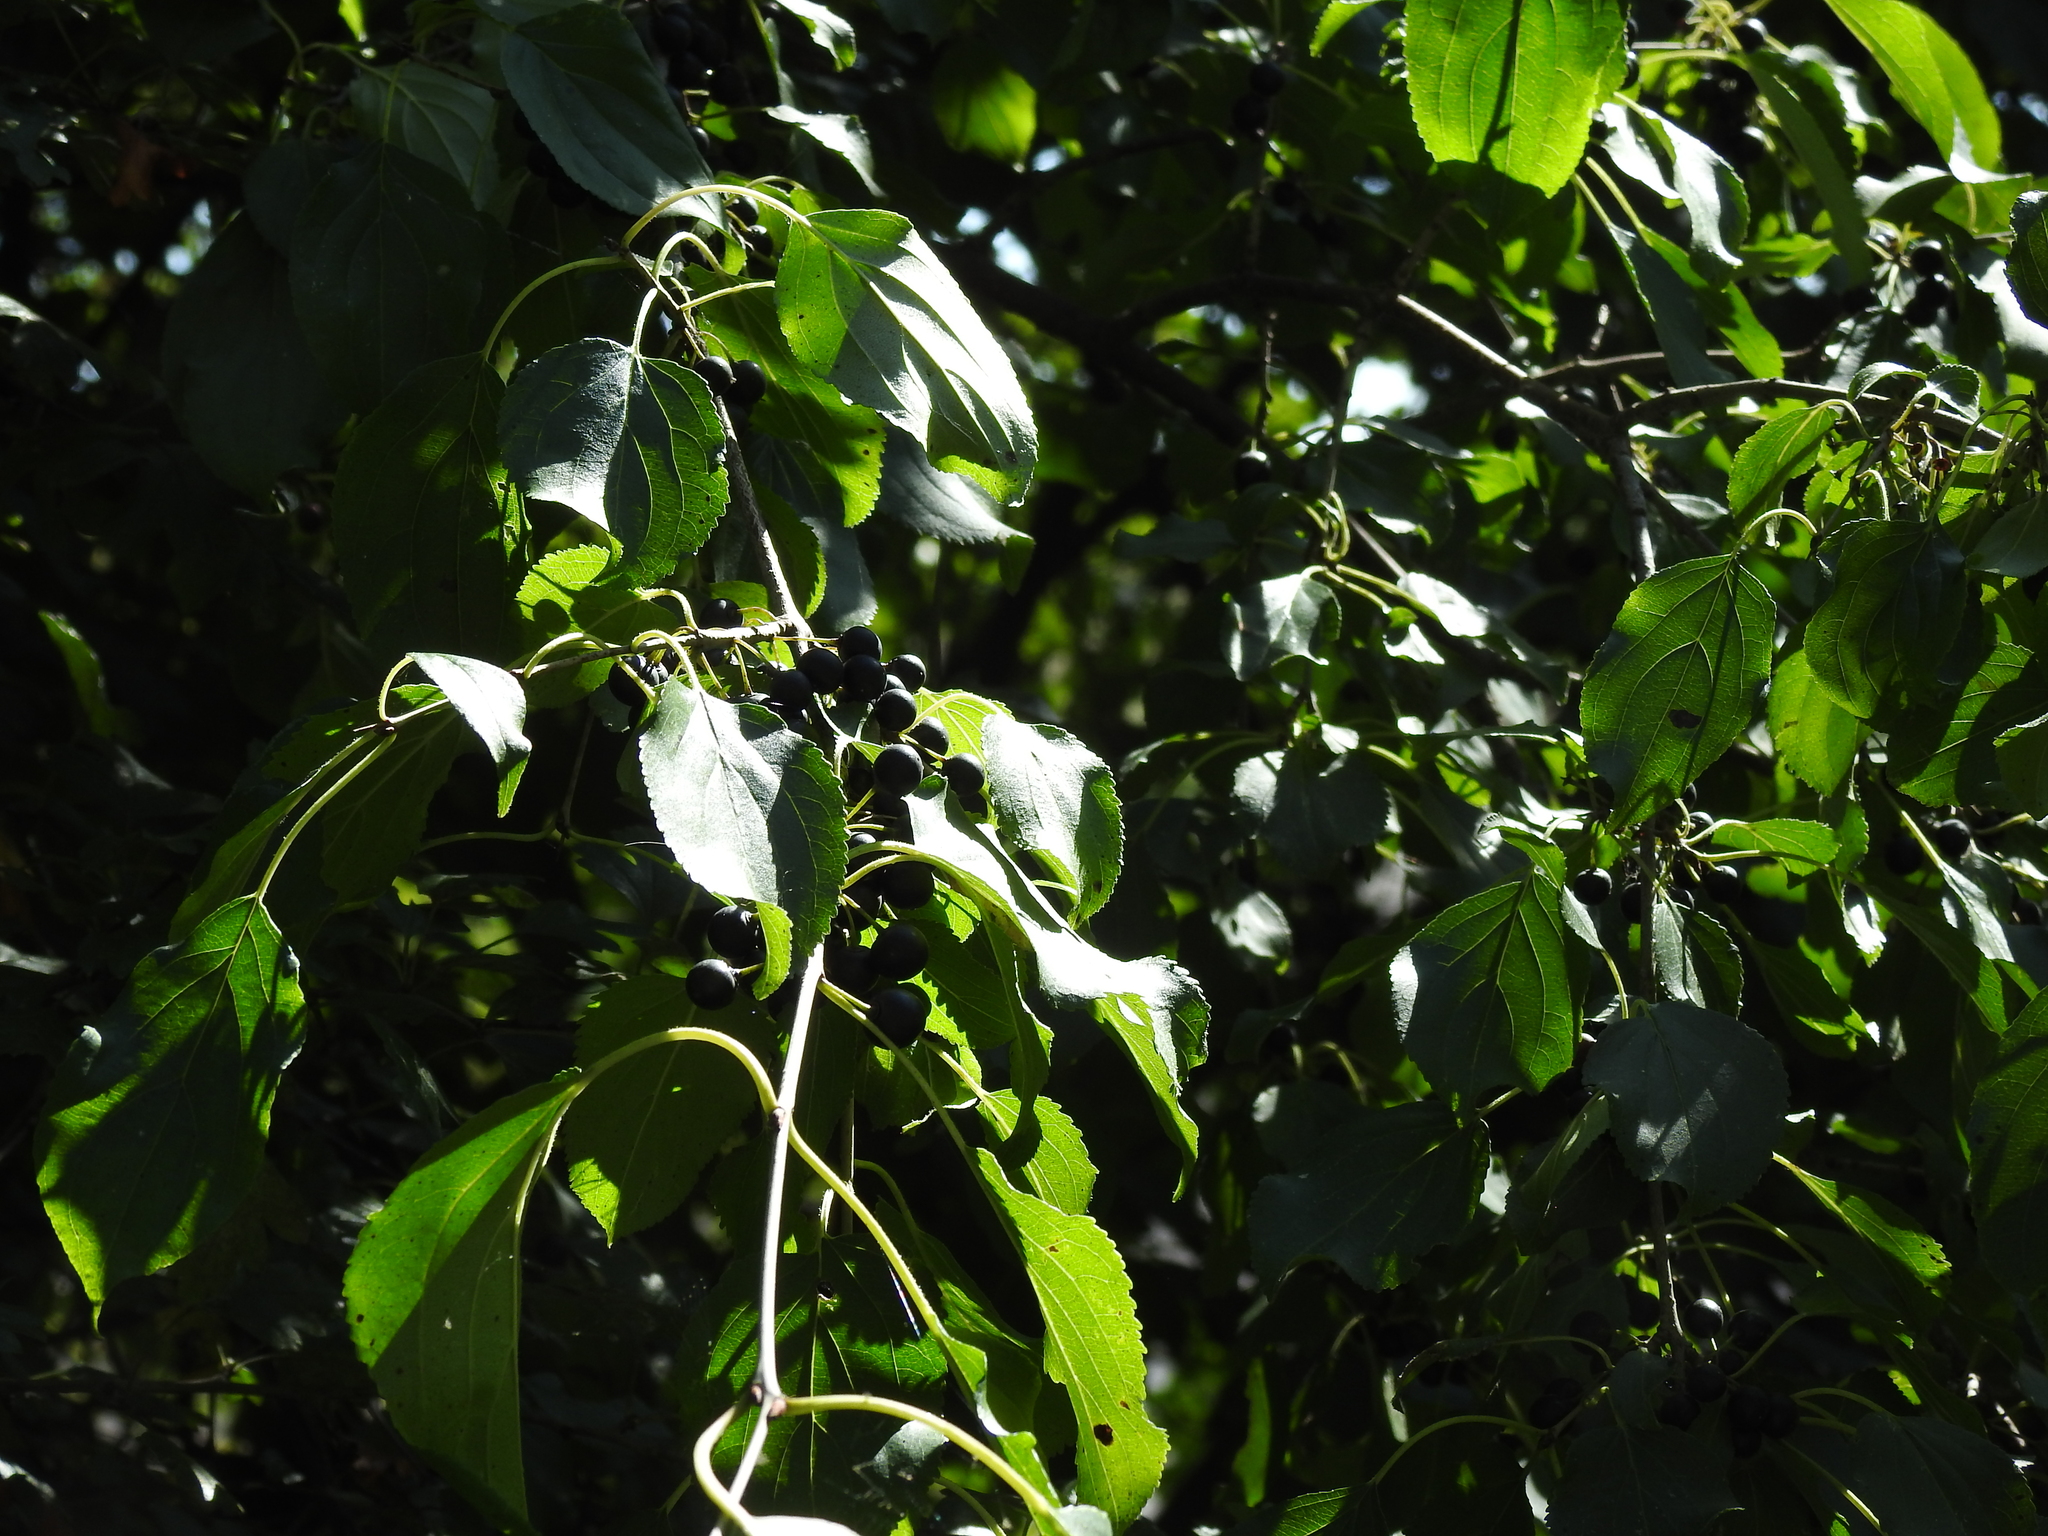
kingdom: Plantae
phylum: Tracheophyta
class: Magnoliopsida
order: Rosales
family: Rhamnaceae
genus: Rhamnus
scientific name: Rhamnus cathartica
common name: Common buckthorn
